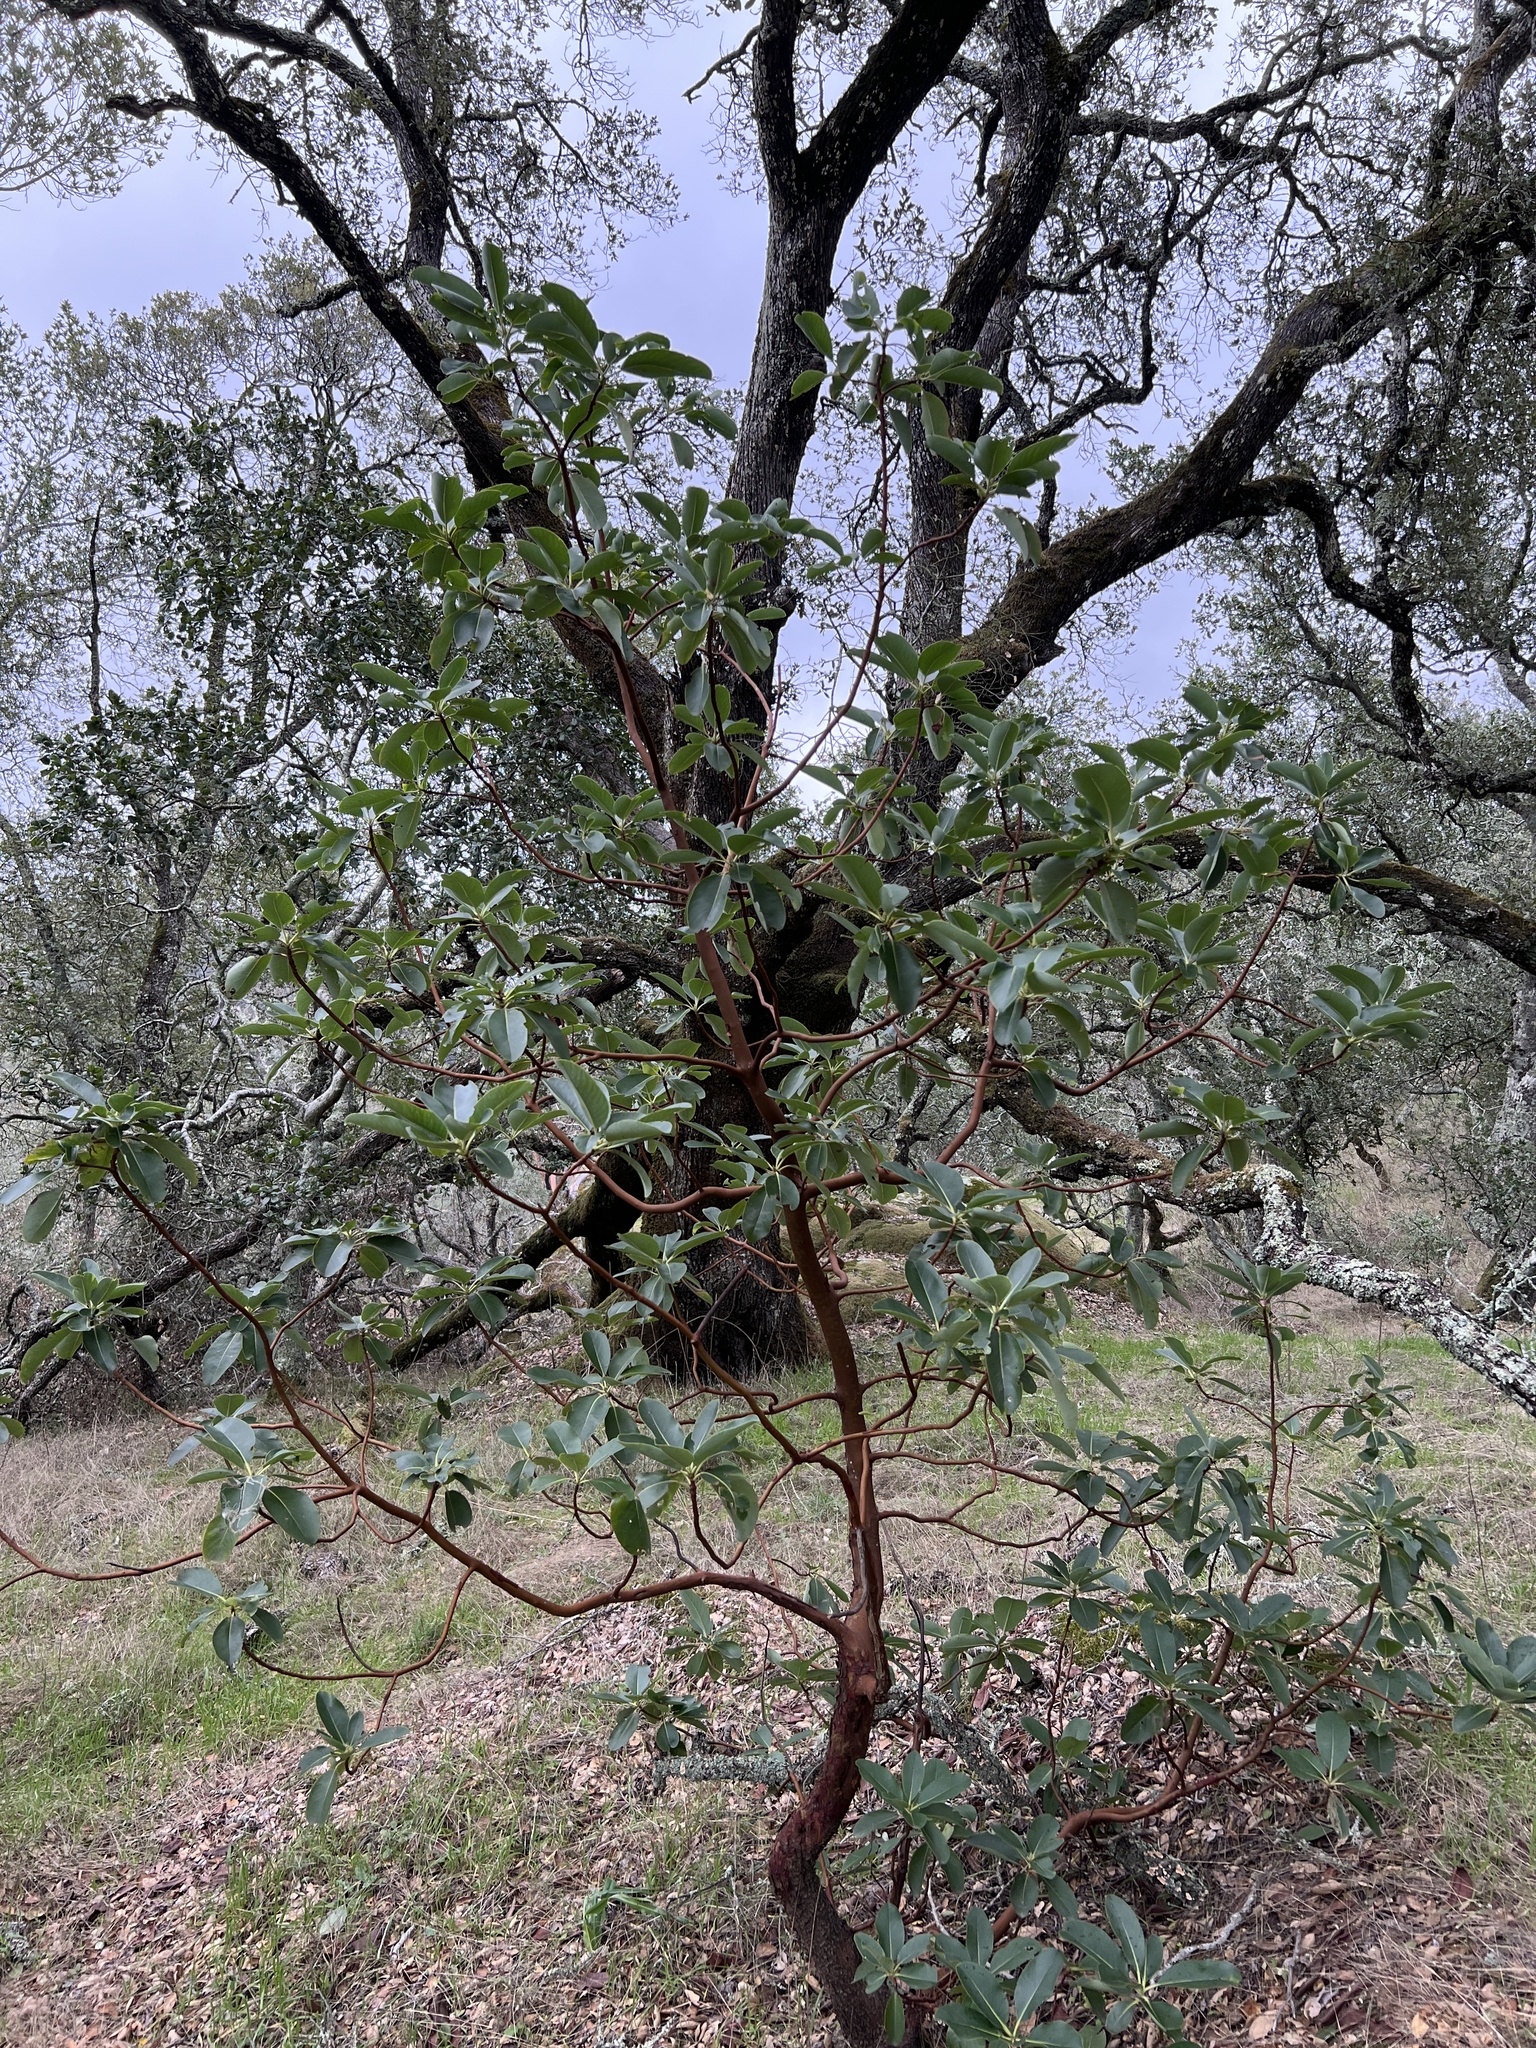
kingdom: Plantae
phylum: Tracheophyta
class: Magnoliopsida
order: Ericales
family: Ericaceae
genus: Arbutus
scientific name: Arbutus menziesii
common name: Pacific madrone
